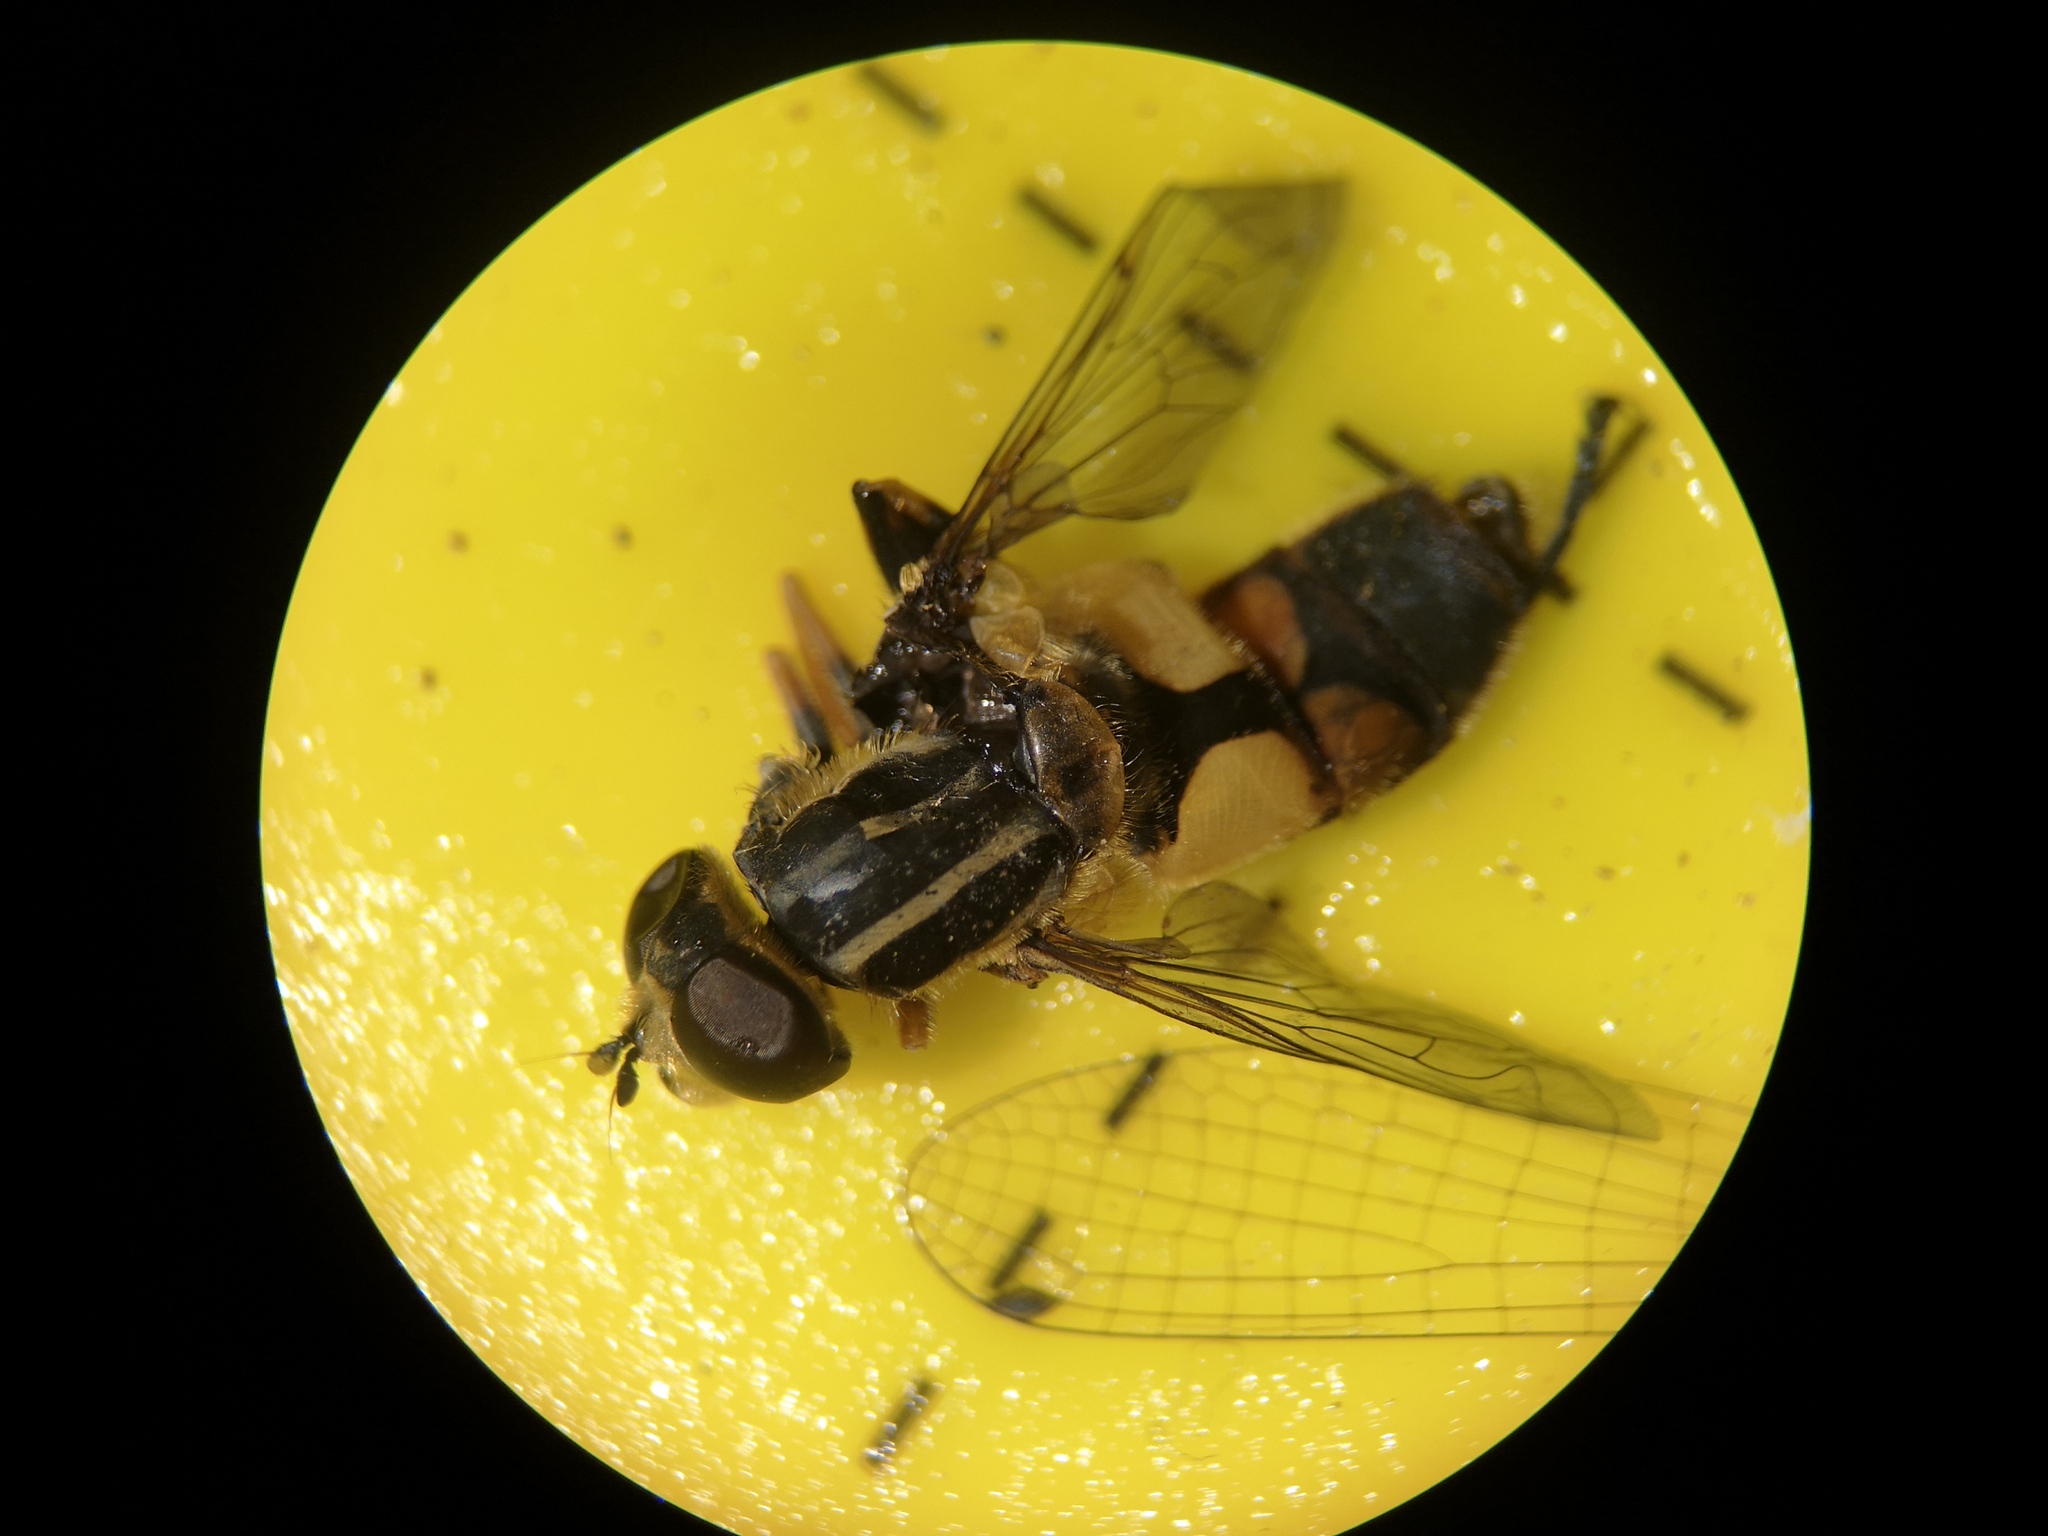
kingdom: Animalia
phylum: Arthropoda
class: Insecta
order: Diptera
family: Syrphidae
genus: Helophilus
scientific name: Helophilus hybridus
